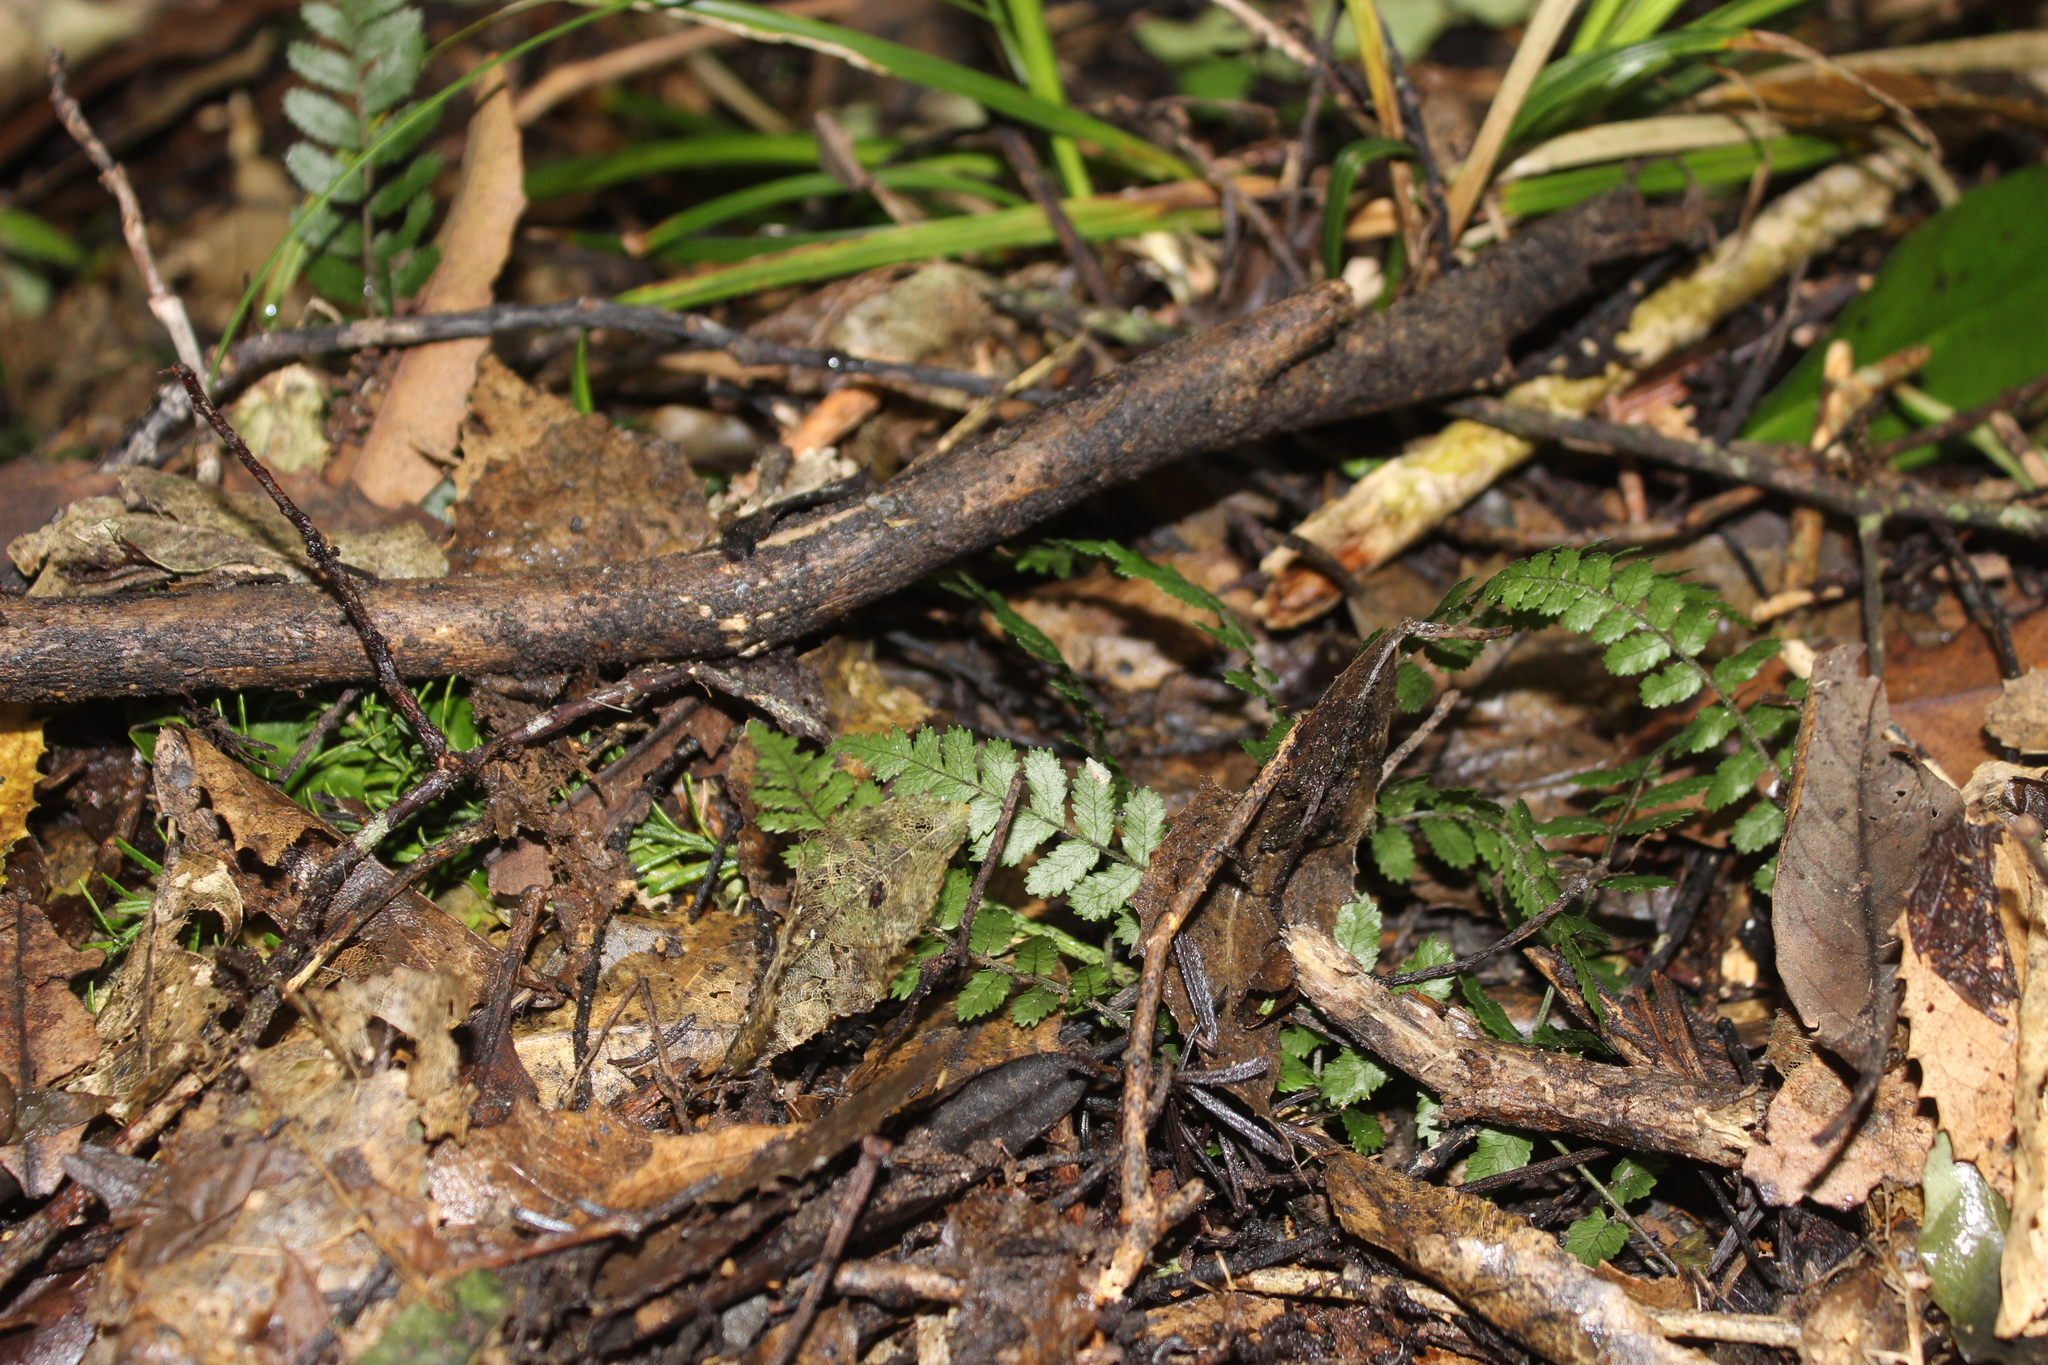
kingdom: Plantae
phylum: Tracheophyta
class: Polypodiopsida
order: Polypodiales
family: Blechnaceae
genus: Icarus
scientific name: Icarus filiformis
